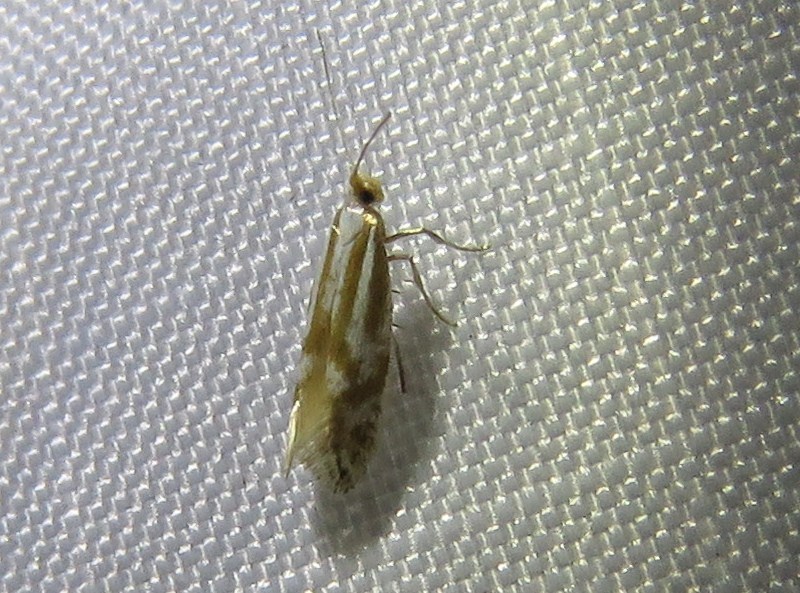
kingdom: Animalia
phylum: Arthropoda
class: Insecta
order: Lepidoptera
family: Argyresthiidae
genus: Argyresthia
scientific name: Argyresthia abdominalis
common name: Downland argent
